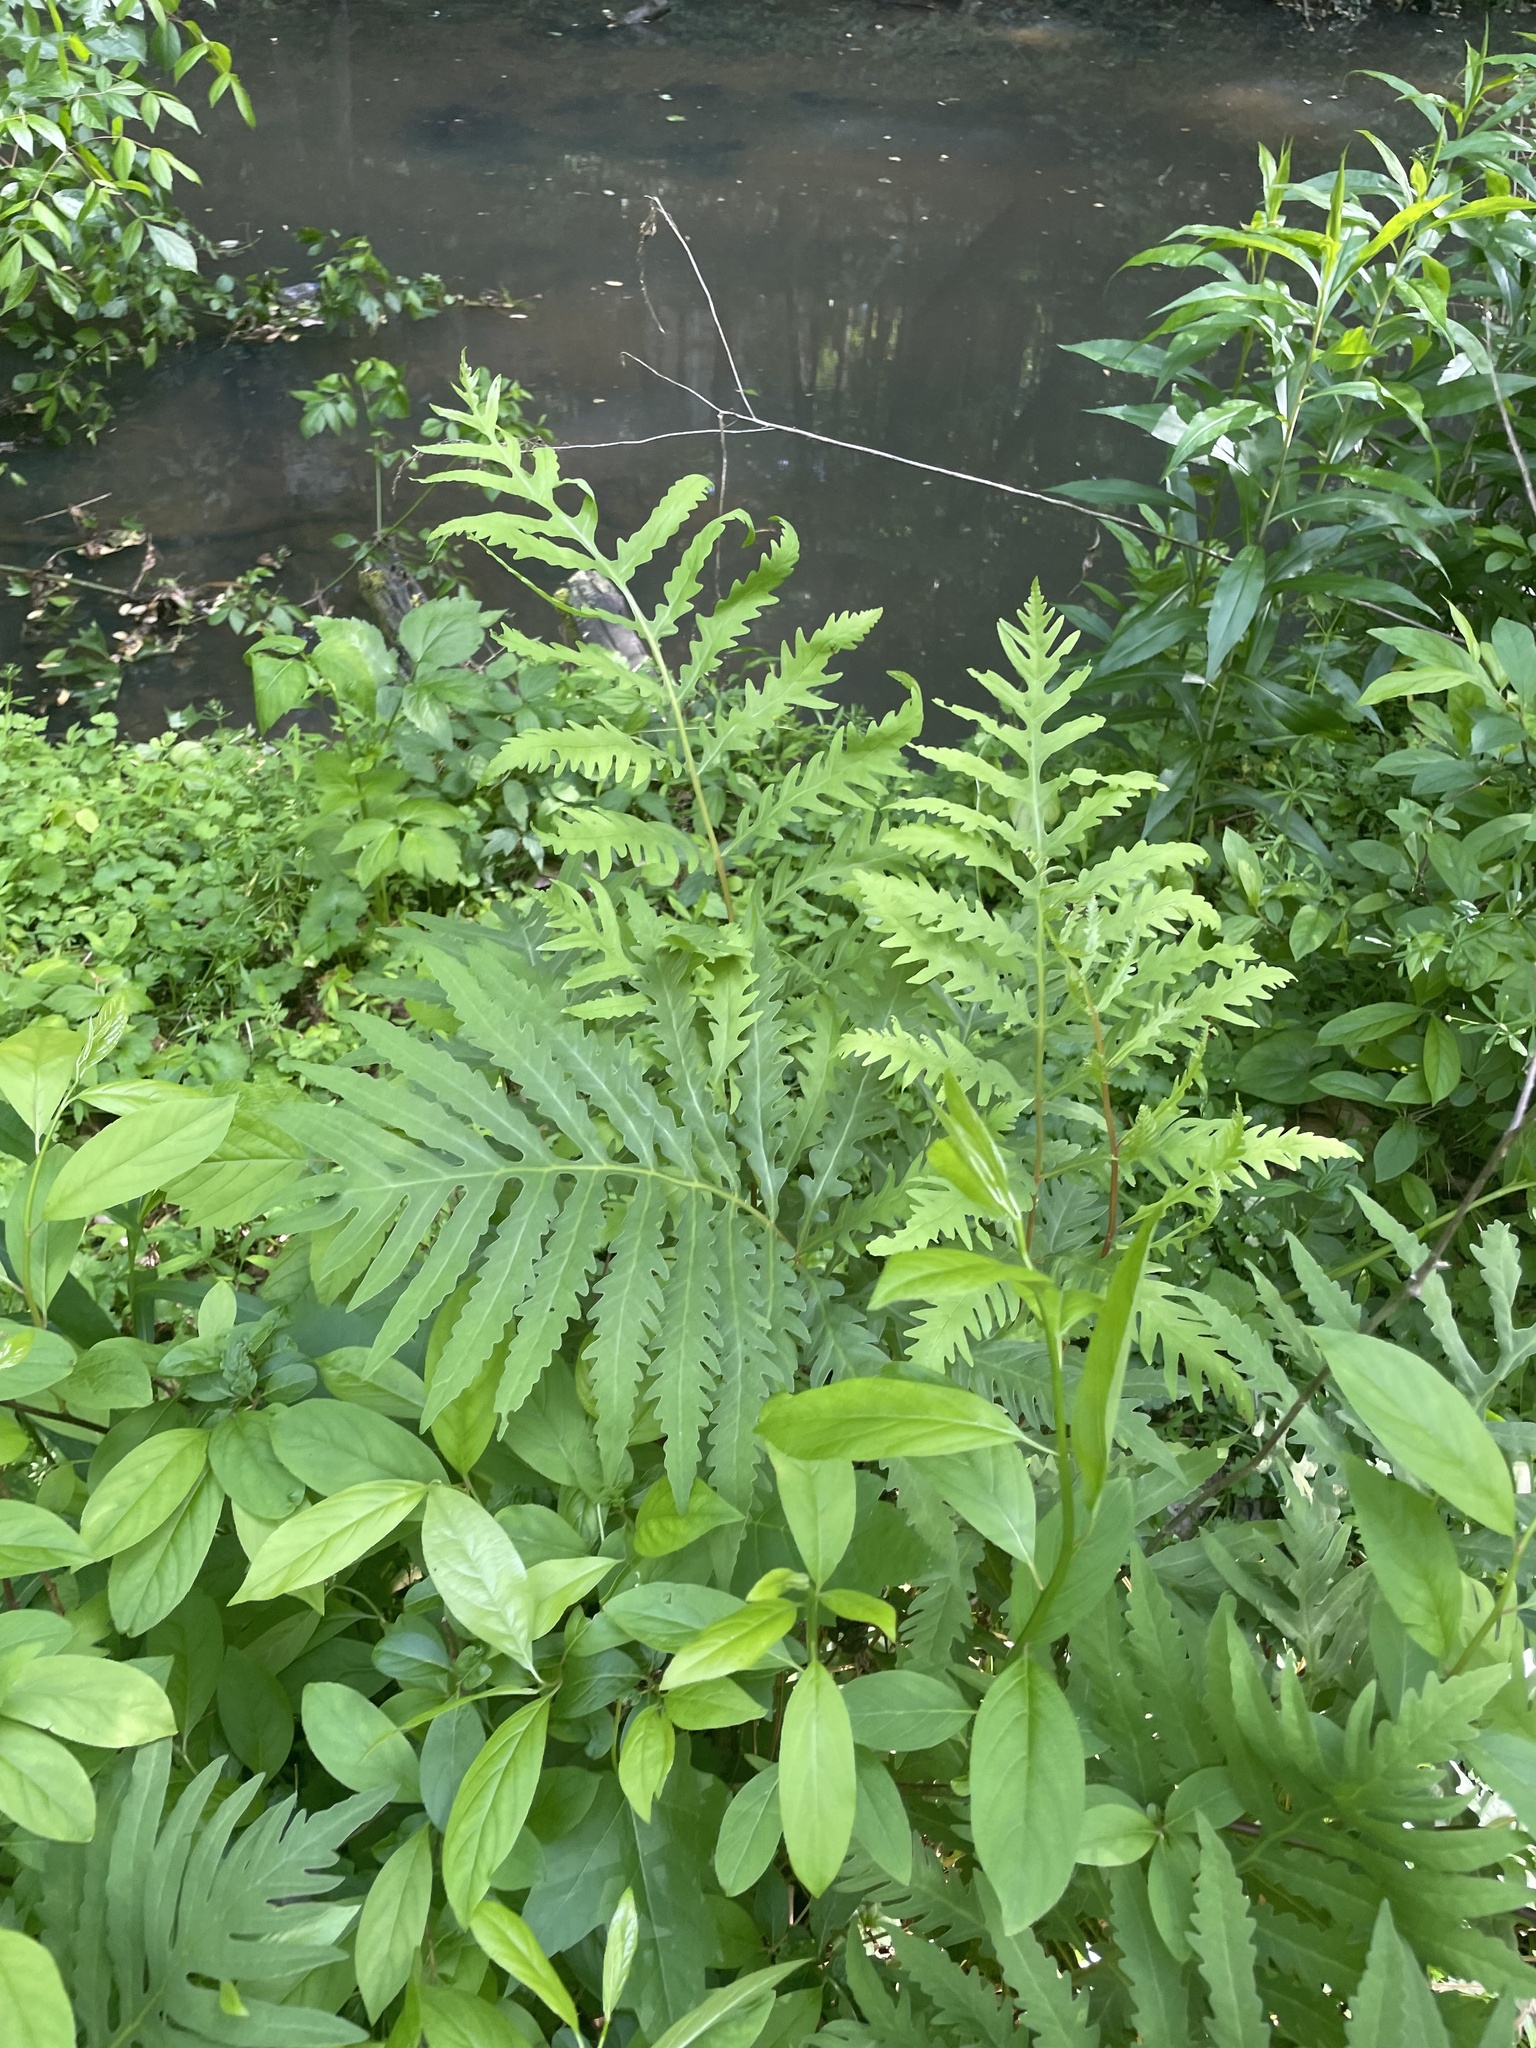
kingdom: Plantae
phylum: Tracheophyta
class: Polypodiopsida
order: Polypodiales
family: Onocleaceae
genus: Onoclea
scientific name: Onoclea sensibilis
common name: Sensitive fern
